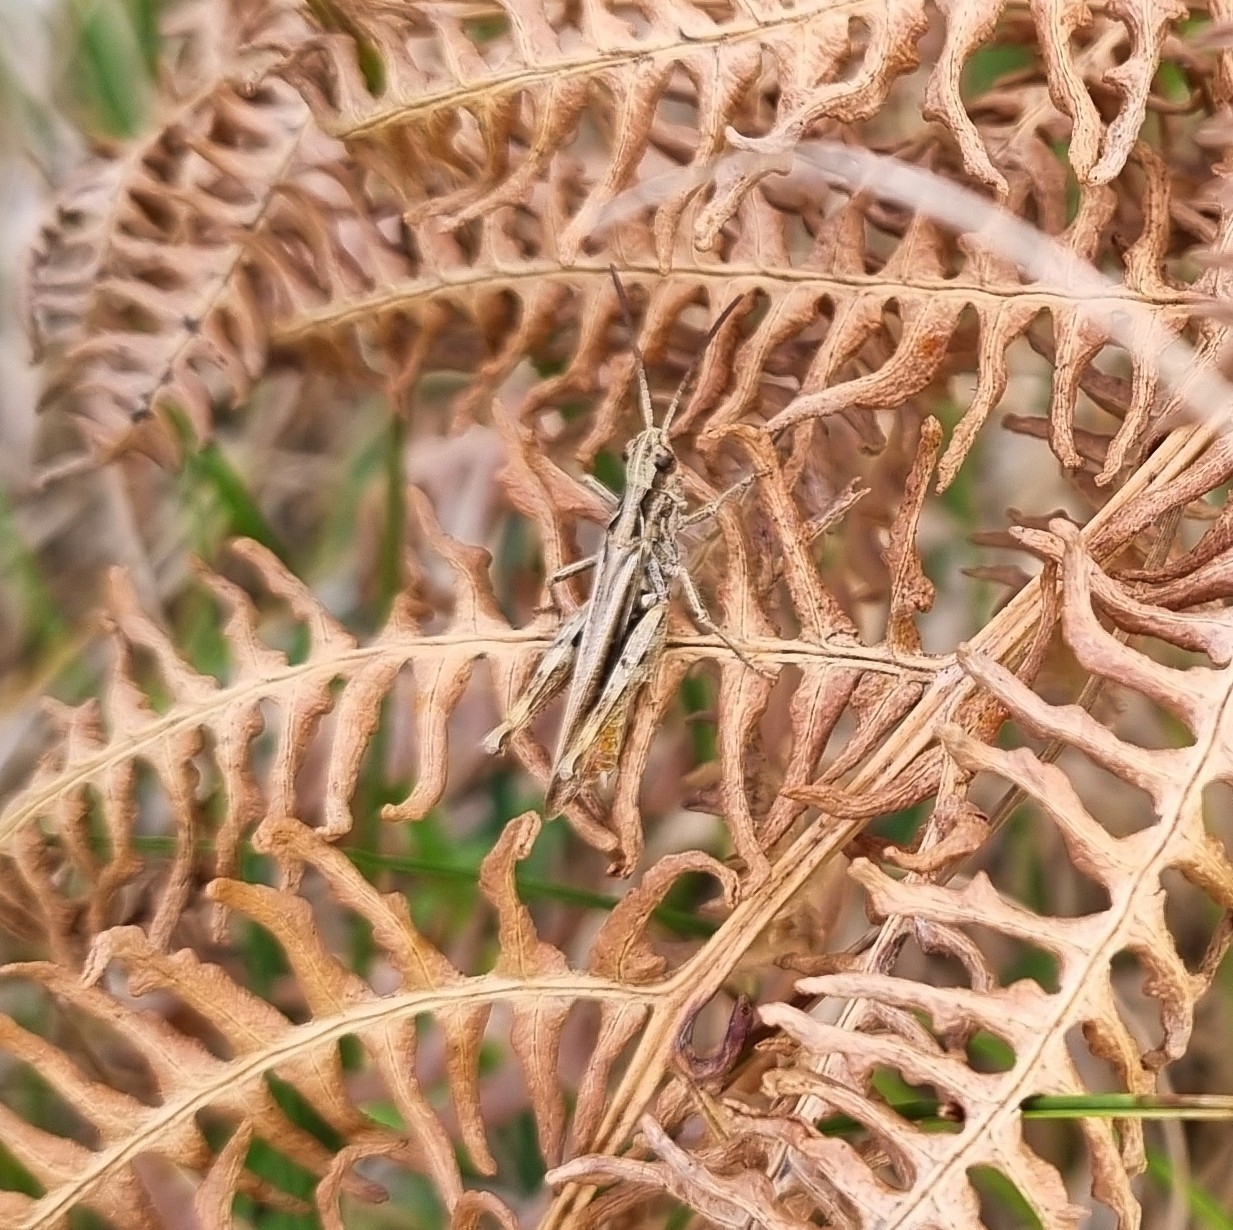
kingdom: Animalia
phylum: Arthropoda
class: Insecta
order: Orthoptera
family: Acrididae
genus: Chorthippus
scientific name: Chorthippus brunneus
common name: Field grasshopper
